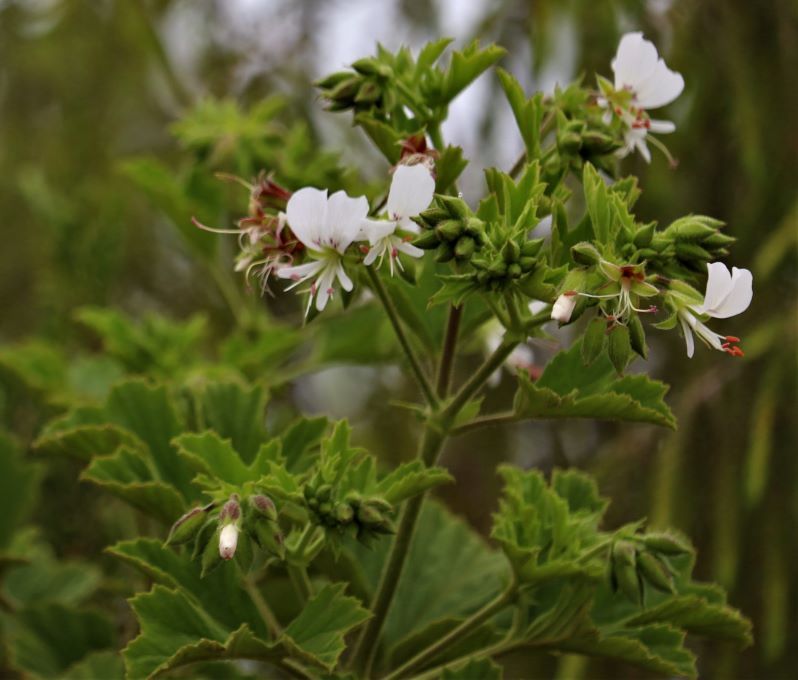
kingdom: Plantae
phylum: Tracheophyta
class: Magnoliopsida
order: Geraniales
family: Geraniaceae
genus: Pelargonium
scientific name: Pelargonium ribifolium
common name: Currant-leaf pelargonium
